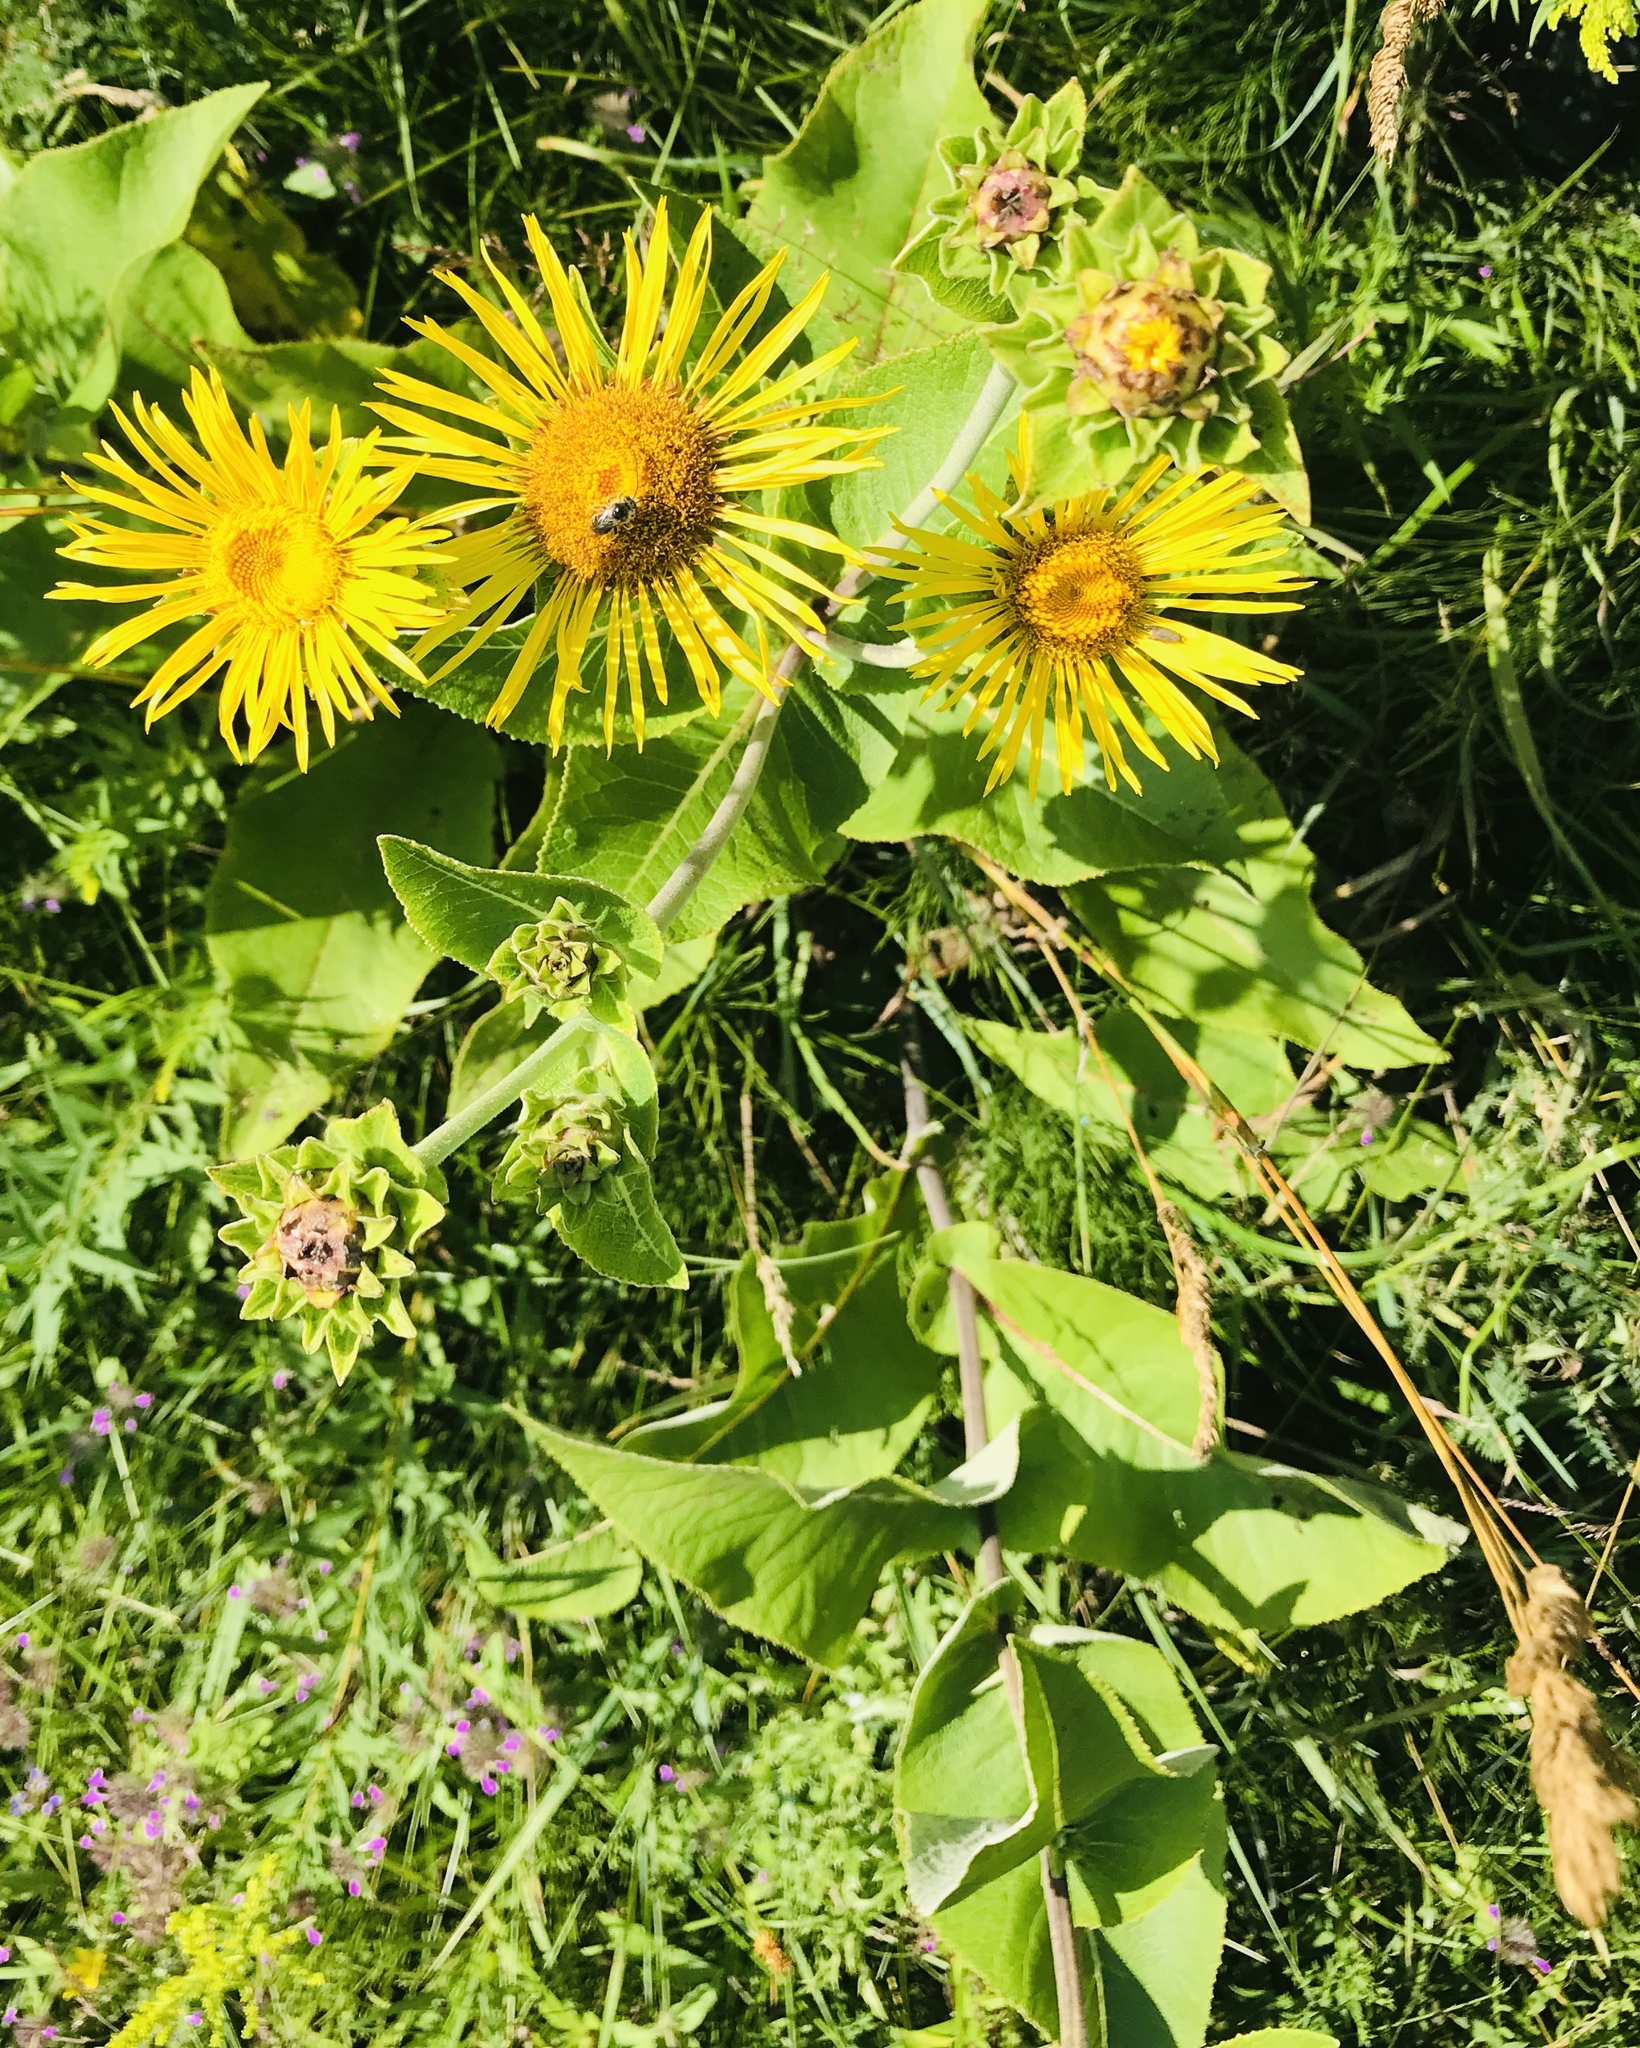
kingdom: Plantae
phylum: Tracheophyta
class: Magnoliopsida
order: Asterales
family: Asteraceae
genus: Inula
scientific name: Inula helenium
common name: Elecampane
